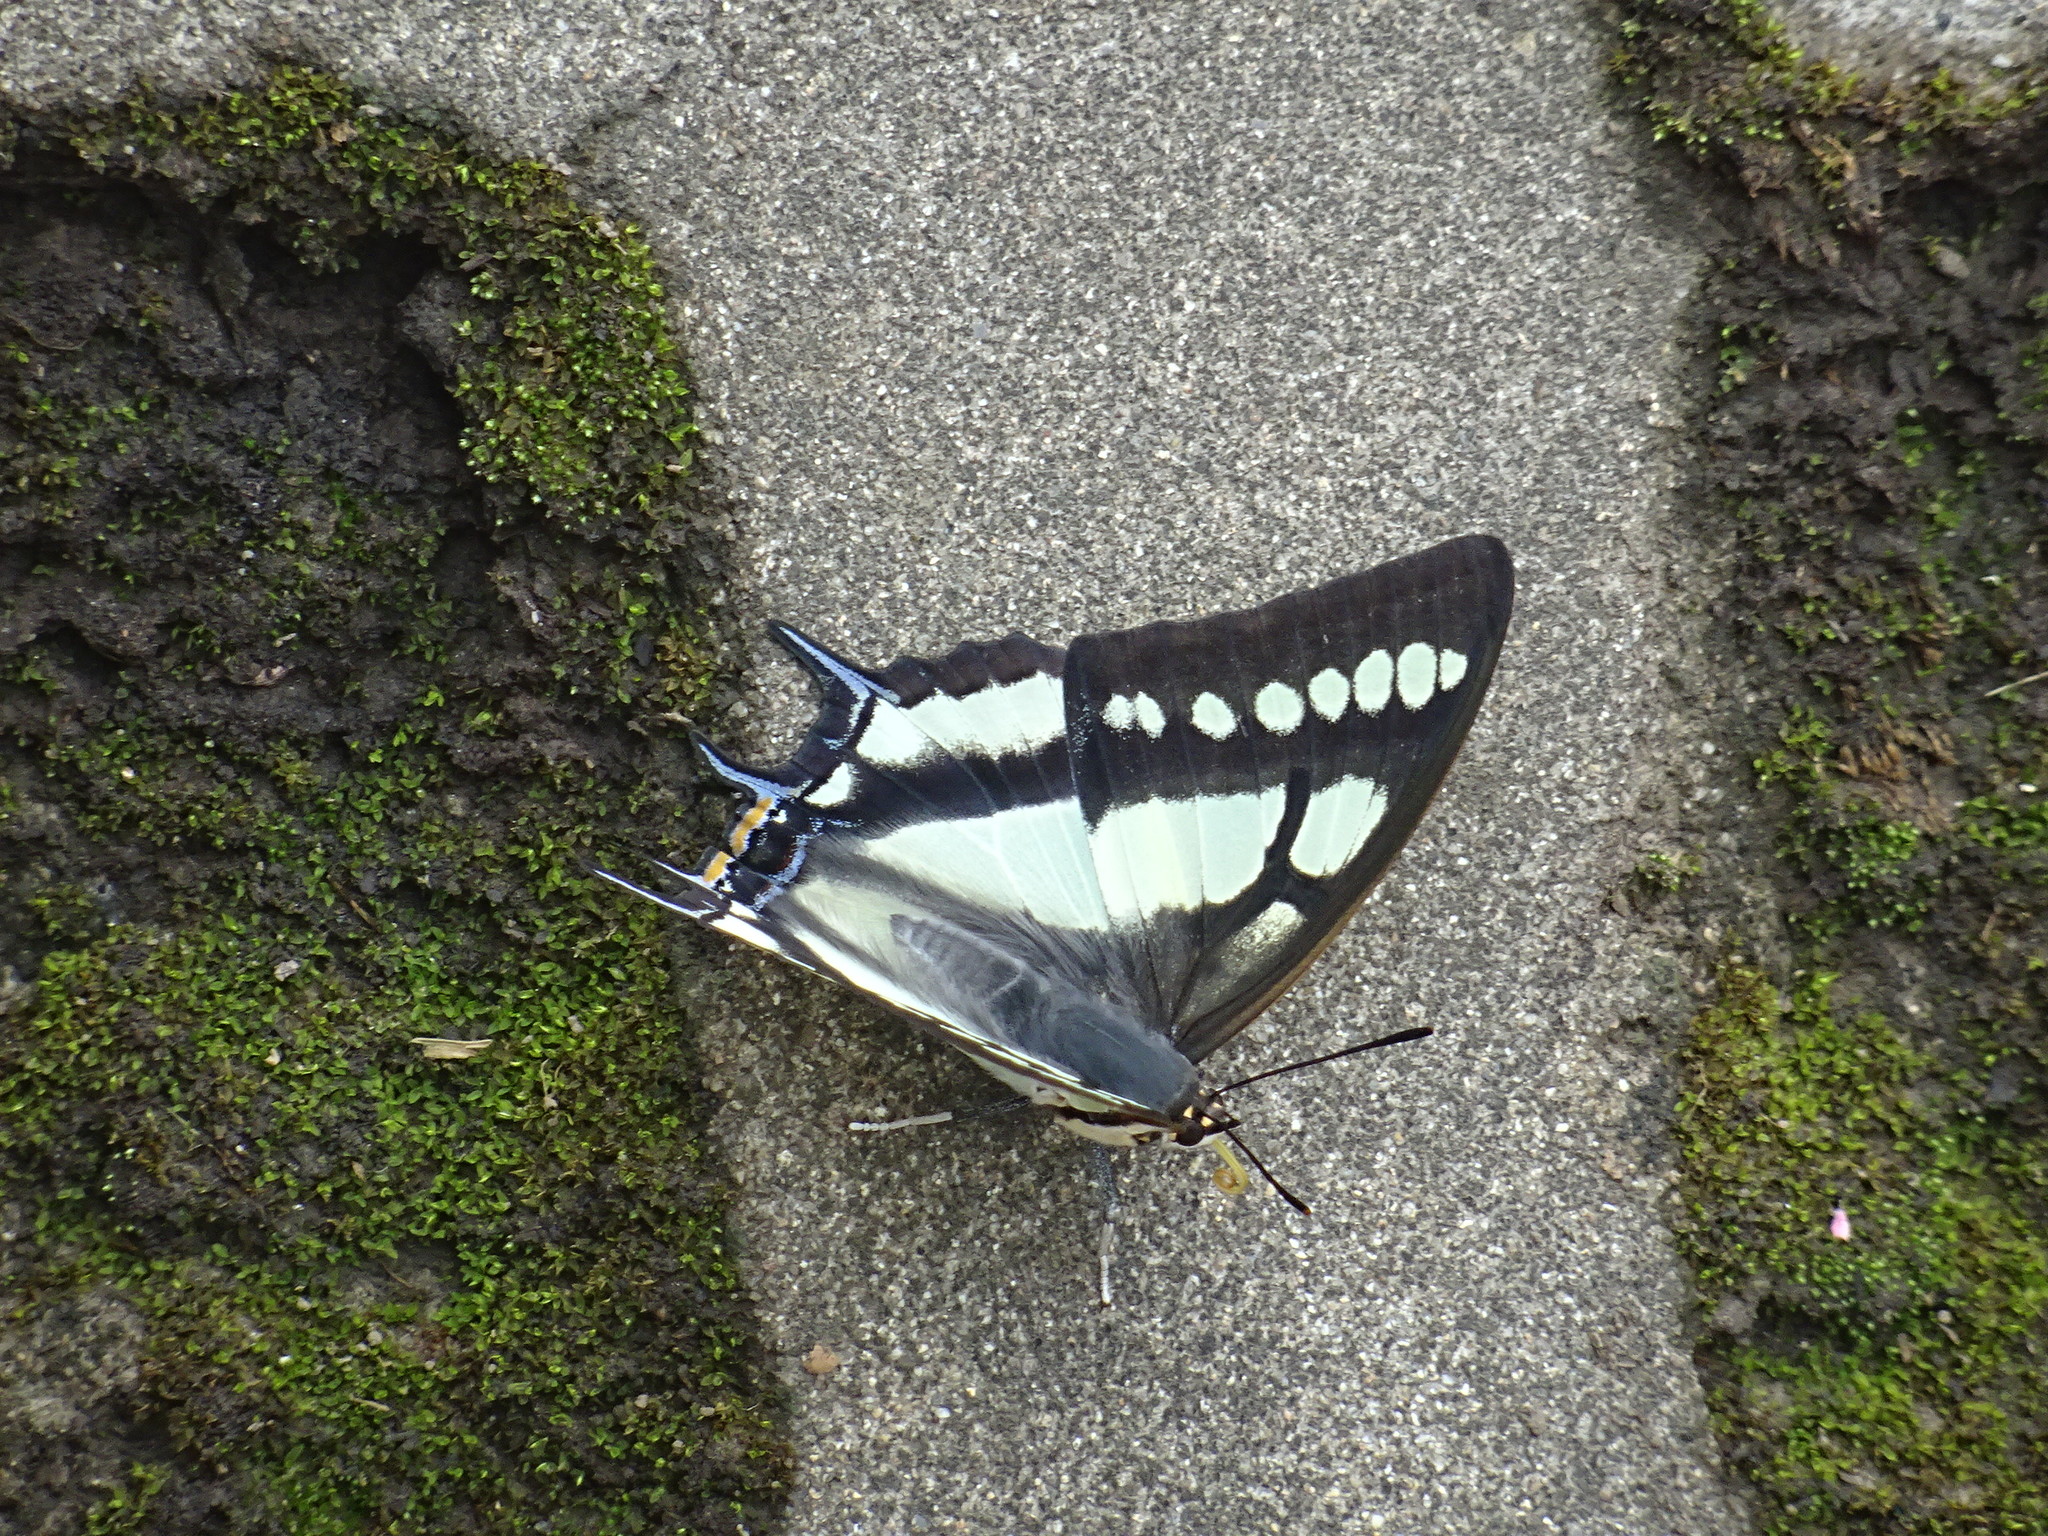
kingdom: Animalia
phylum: Arthropoda
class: Insecta
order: Lepidoptera
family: Nymphalidae
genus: Polyura
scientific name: Polyura narcaeus
